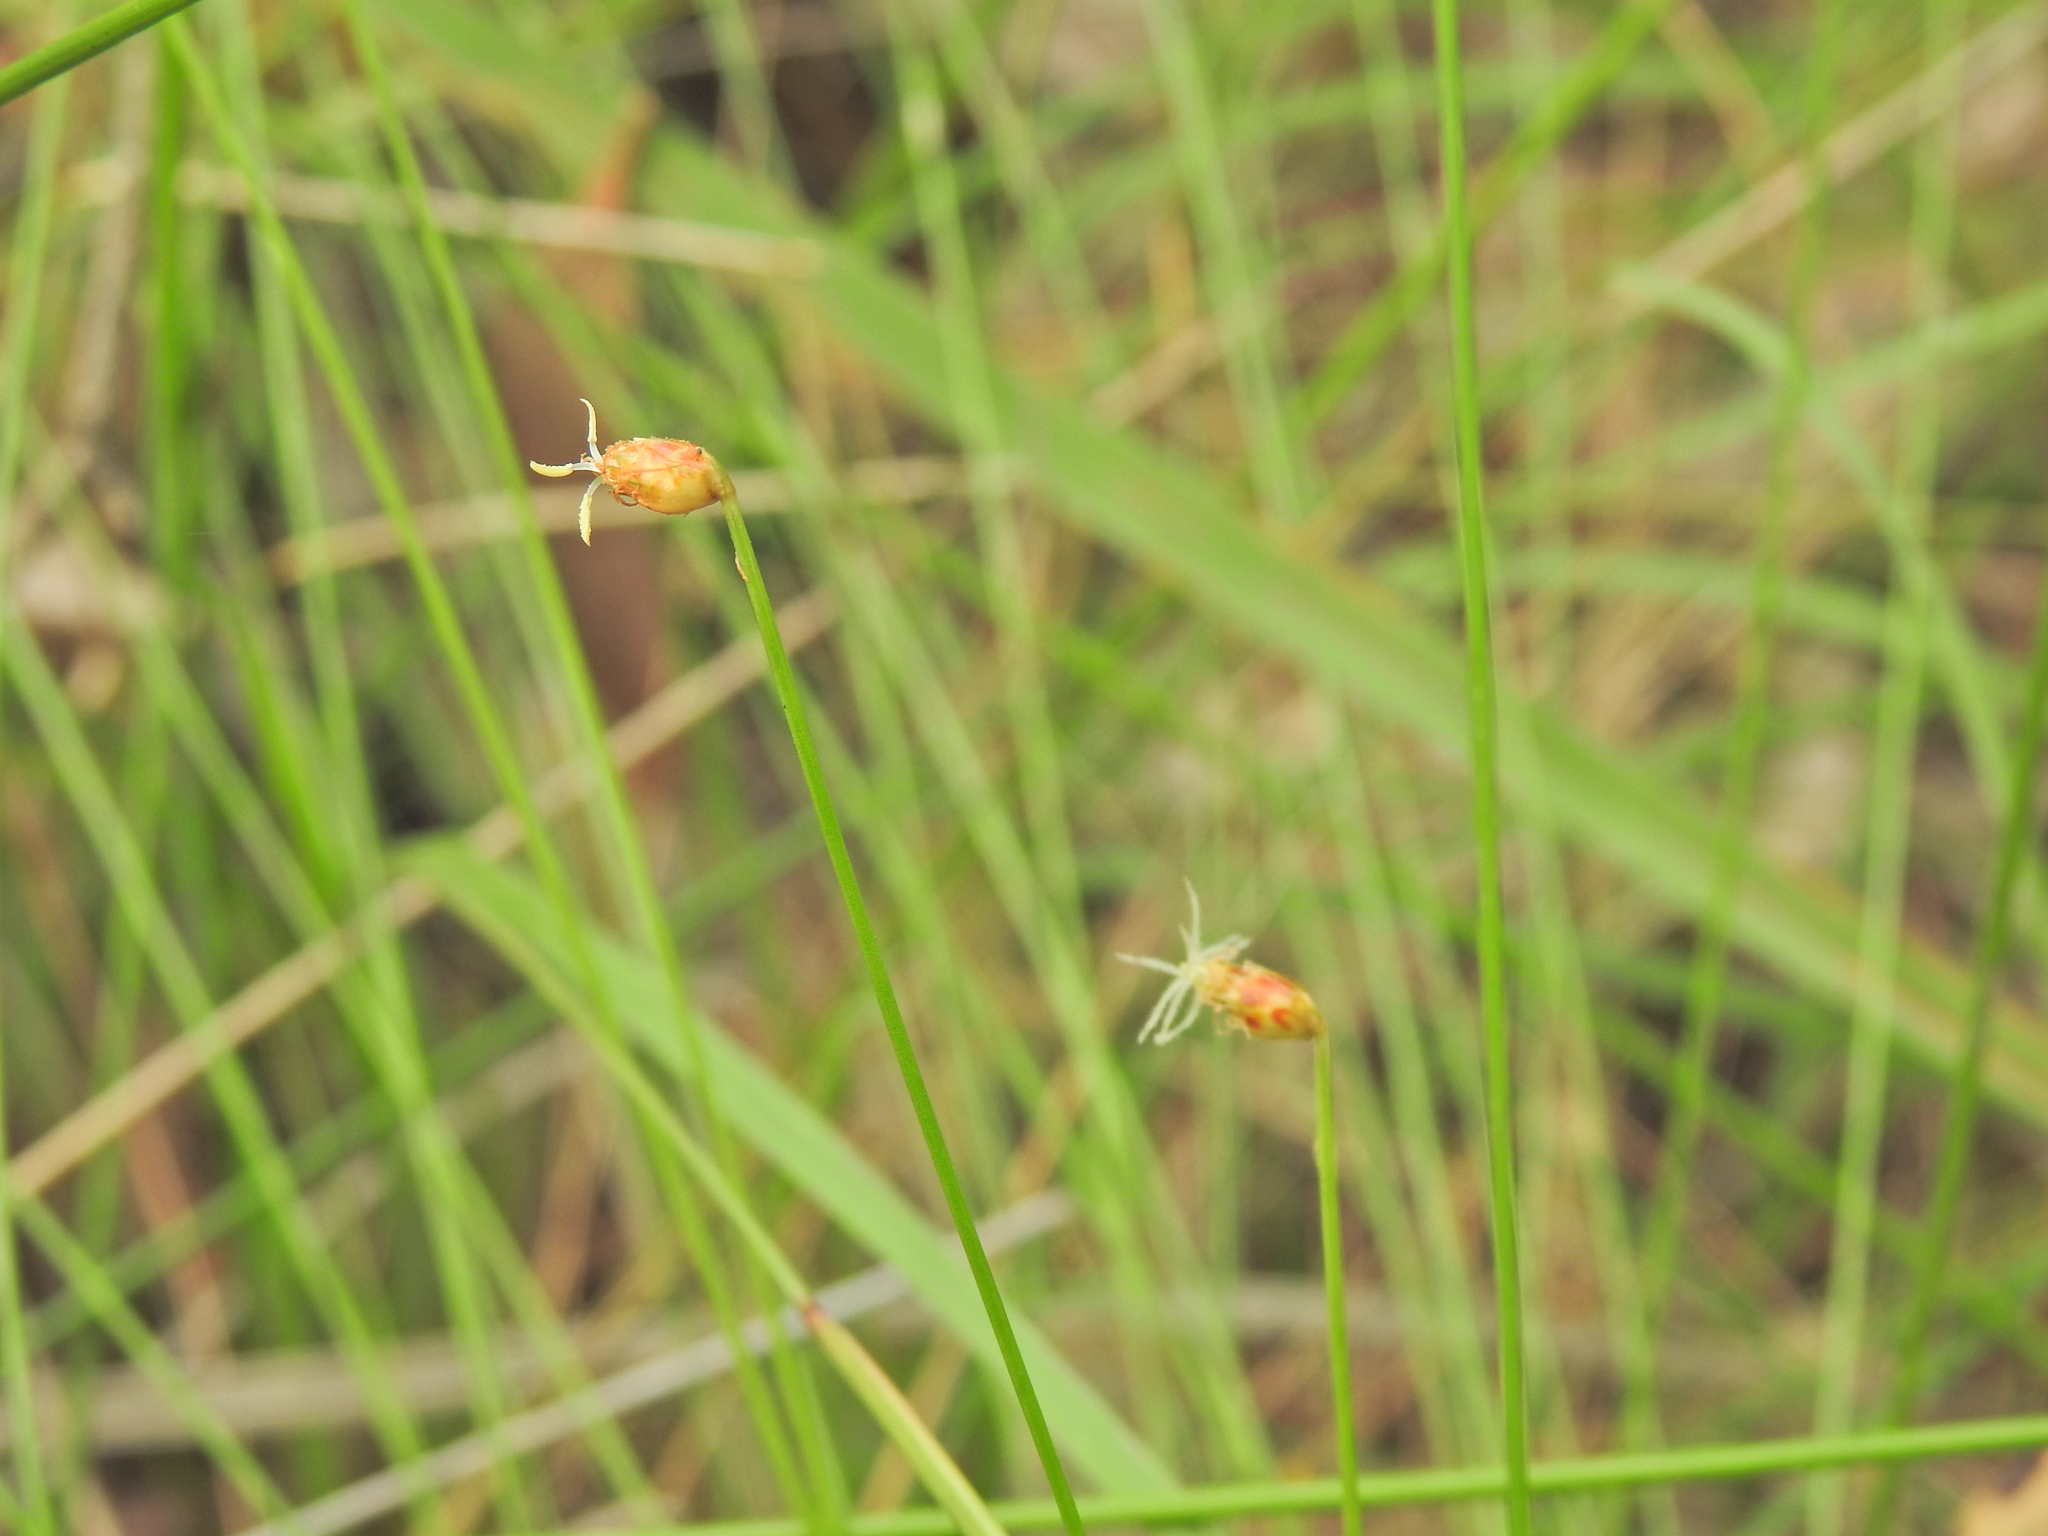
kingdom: Plantae
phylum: Tracheophyta
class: Liliopsida
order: Poales
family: Cyperaceae
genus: Fimbristylis
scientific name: Fimbristylis nutans
